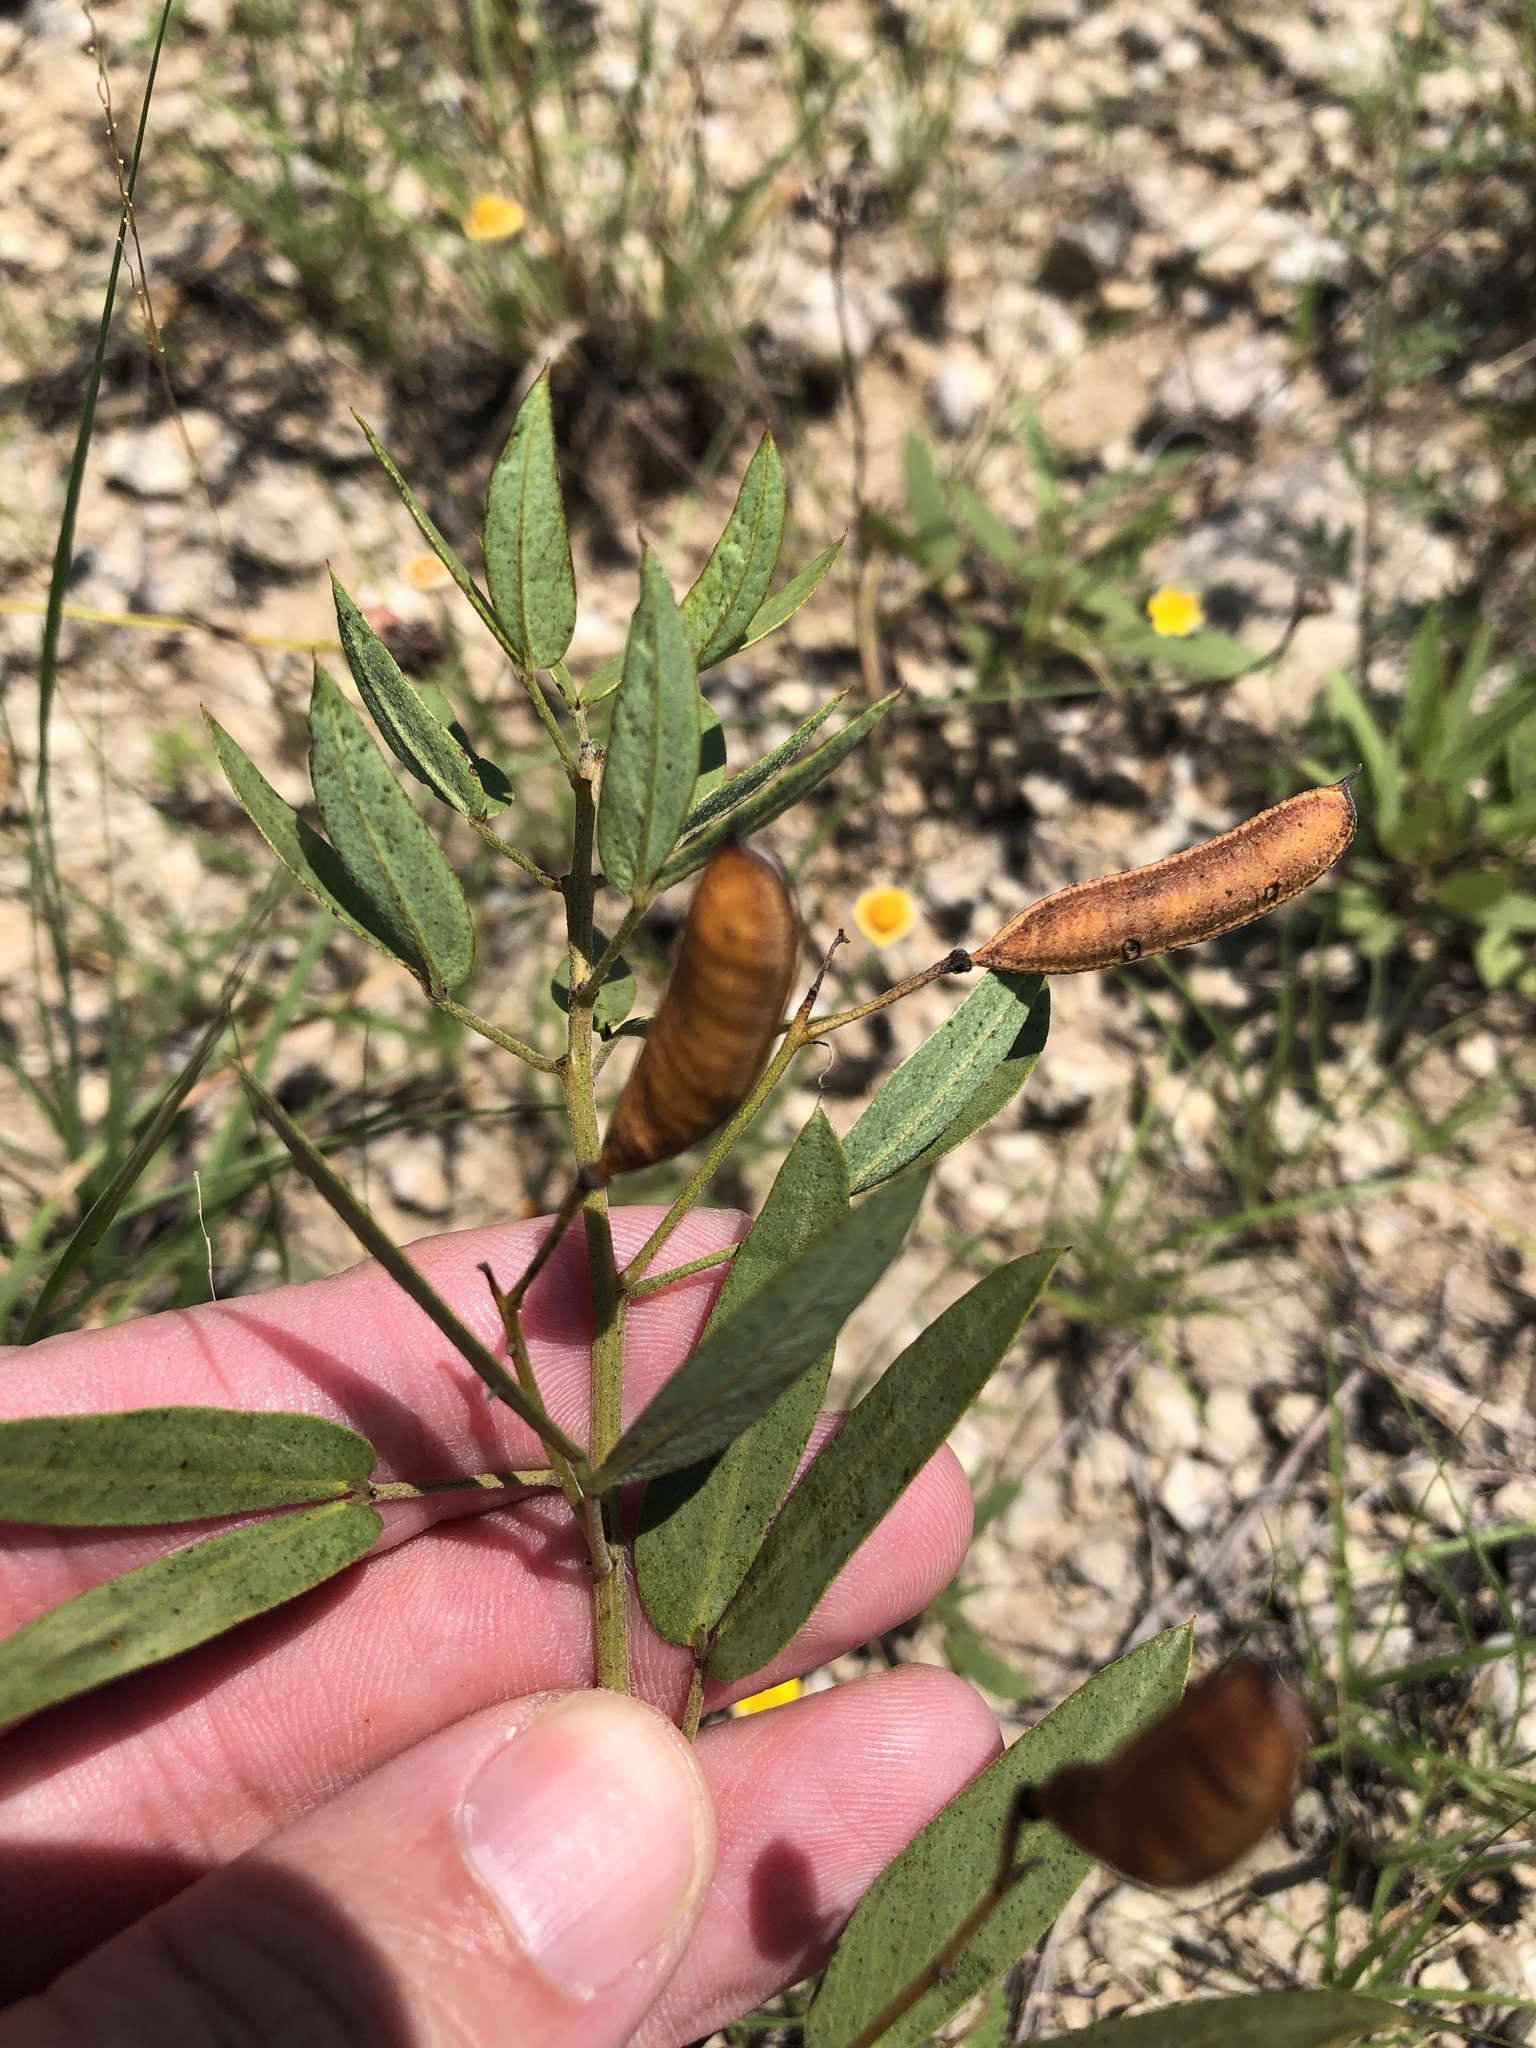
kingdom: Plantae
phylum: Tracheophyta
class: Magnoliopsida
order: Fabales
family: Fabaceae
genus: Senna
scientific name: Senna roemeriana
